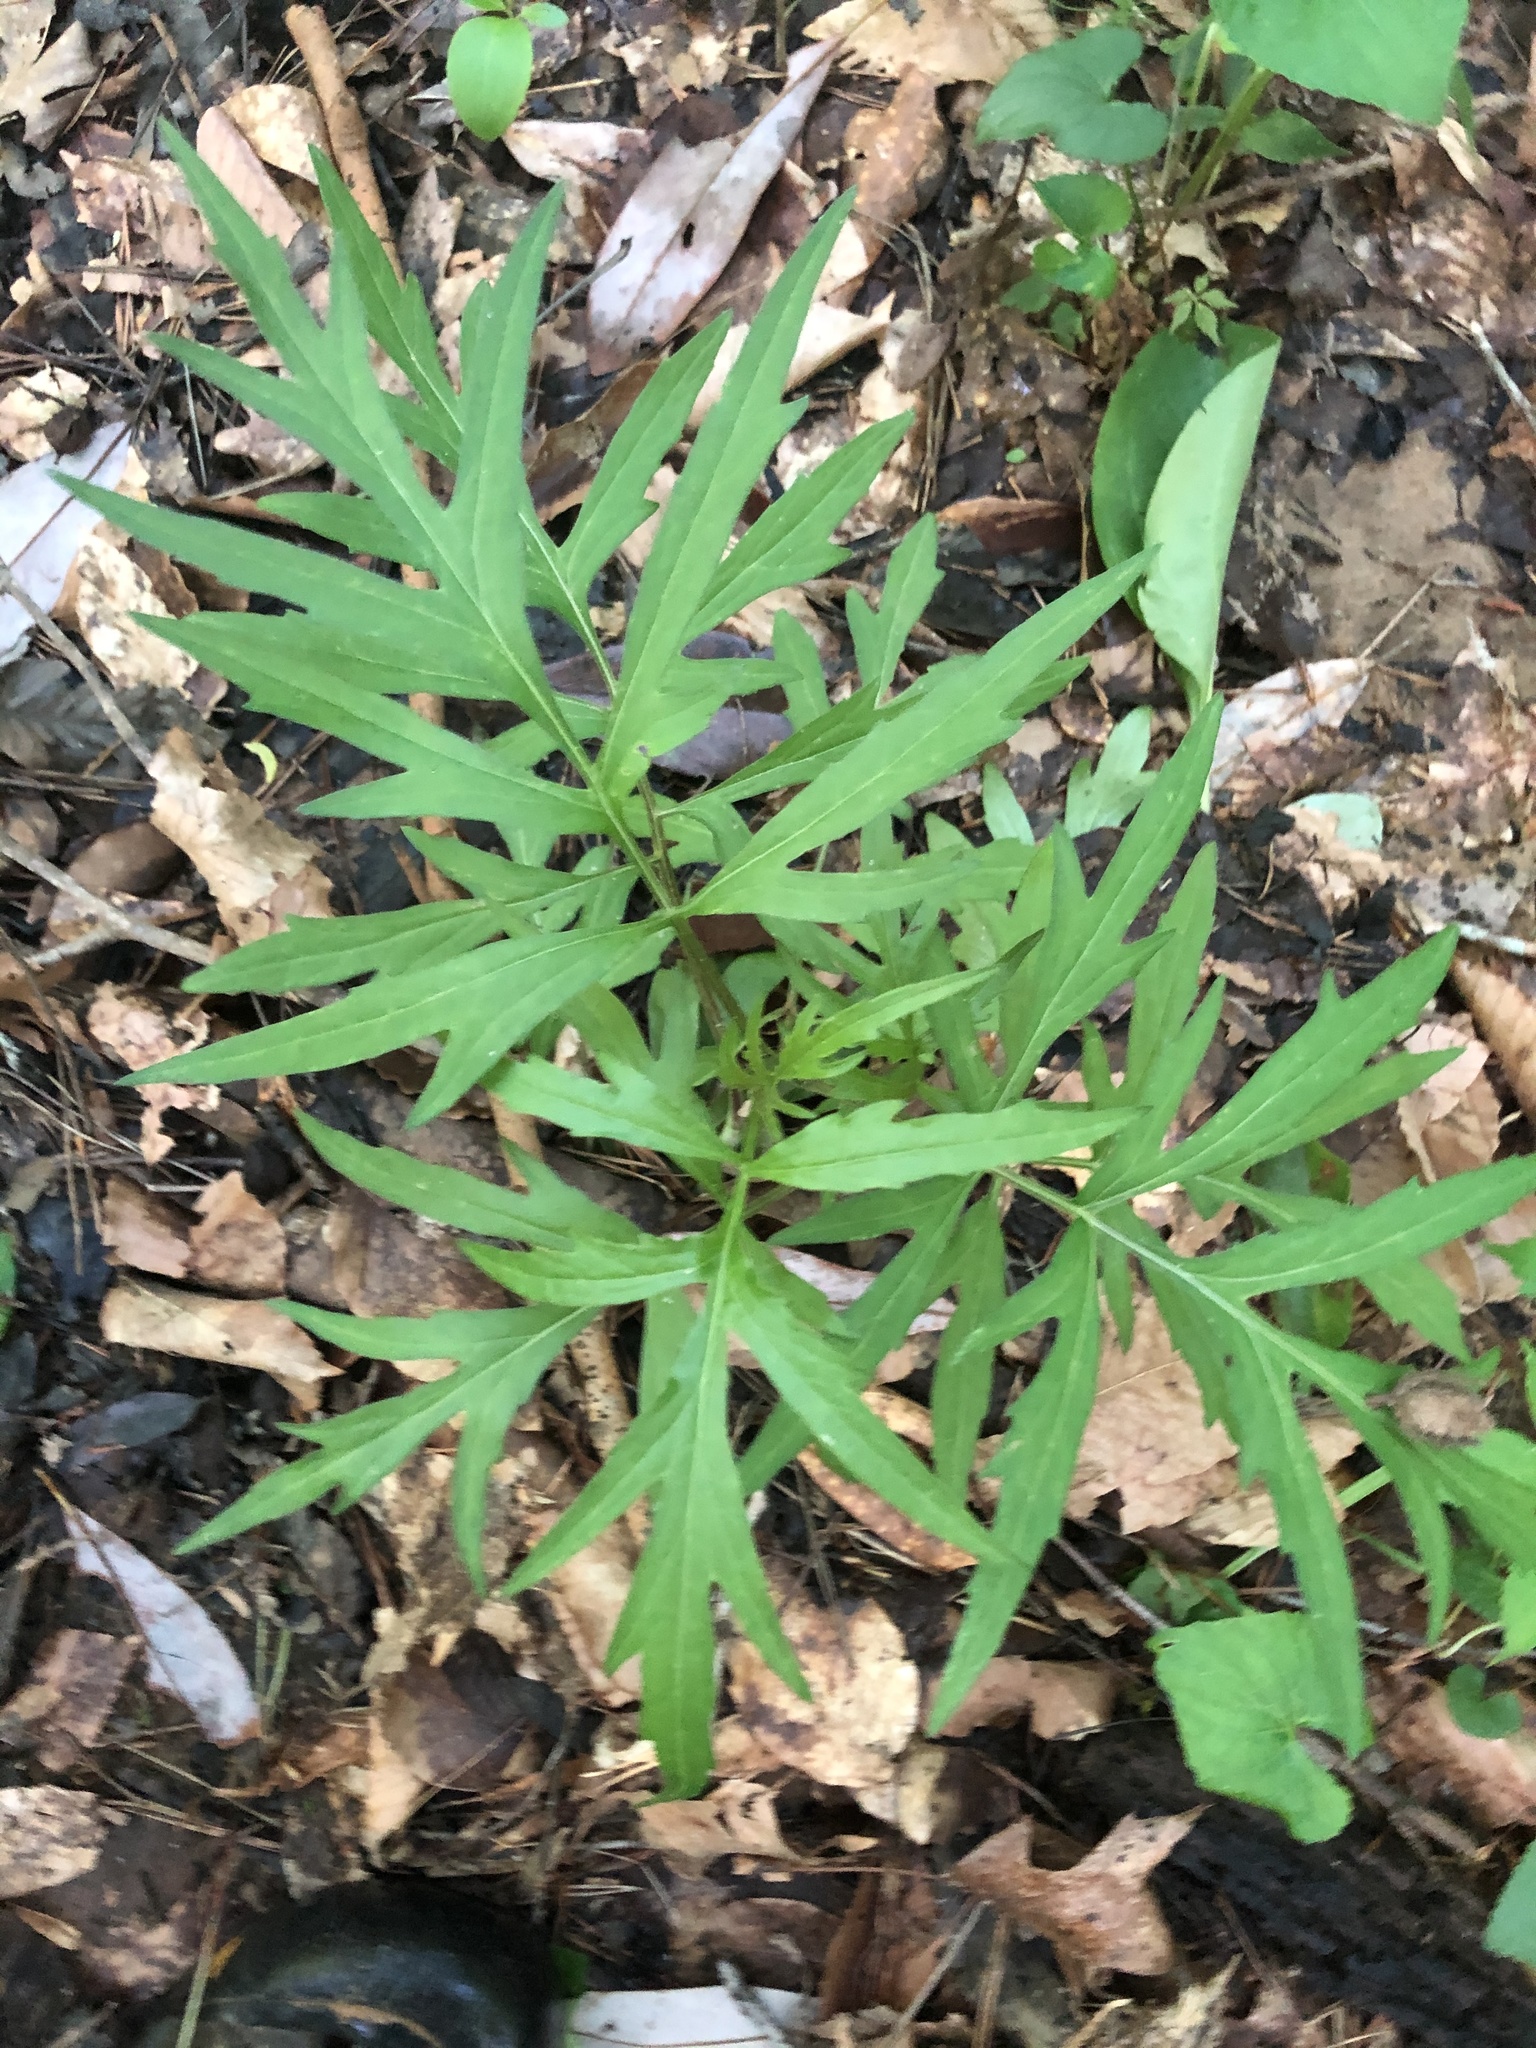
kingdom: Plantae
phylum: Tracheophyta
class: Magnoliopsida
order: Asterales
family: Asteraceae
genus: Rudbeckia
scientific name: Rudbeckia laciniata
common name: Coneflower
